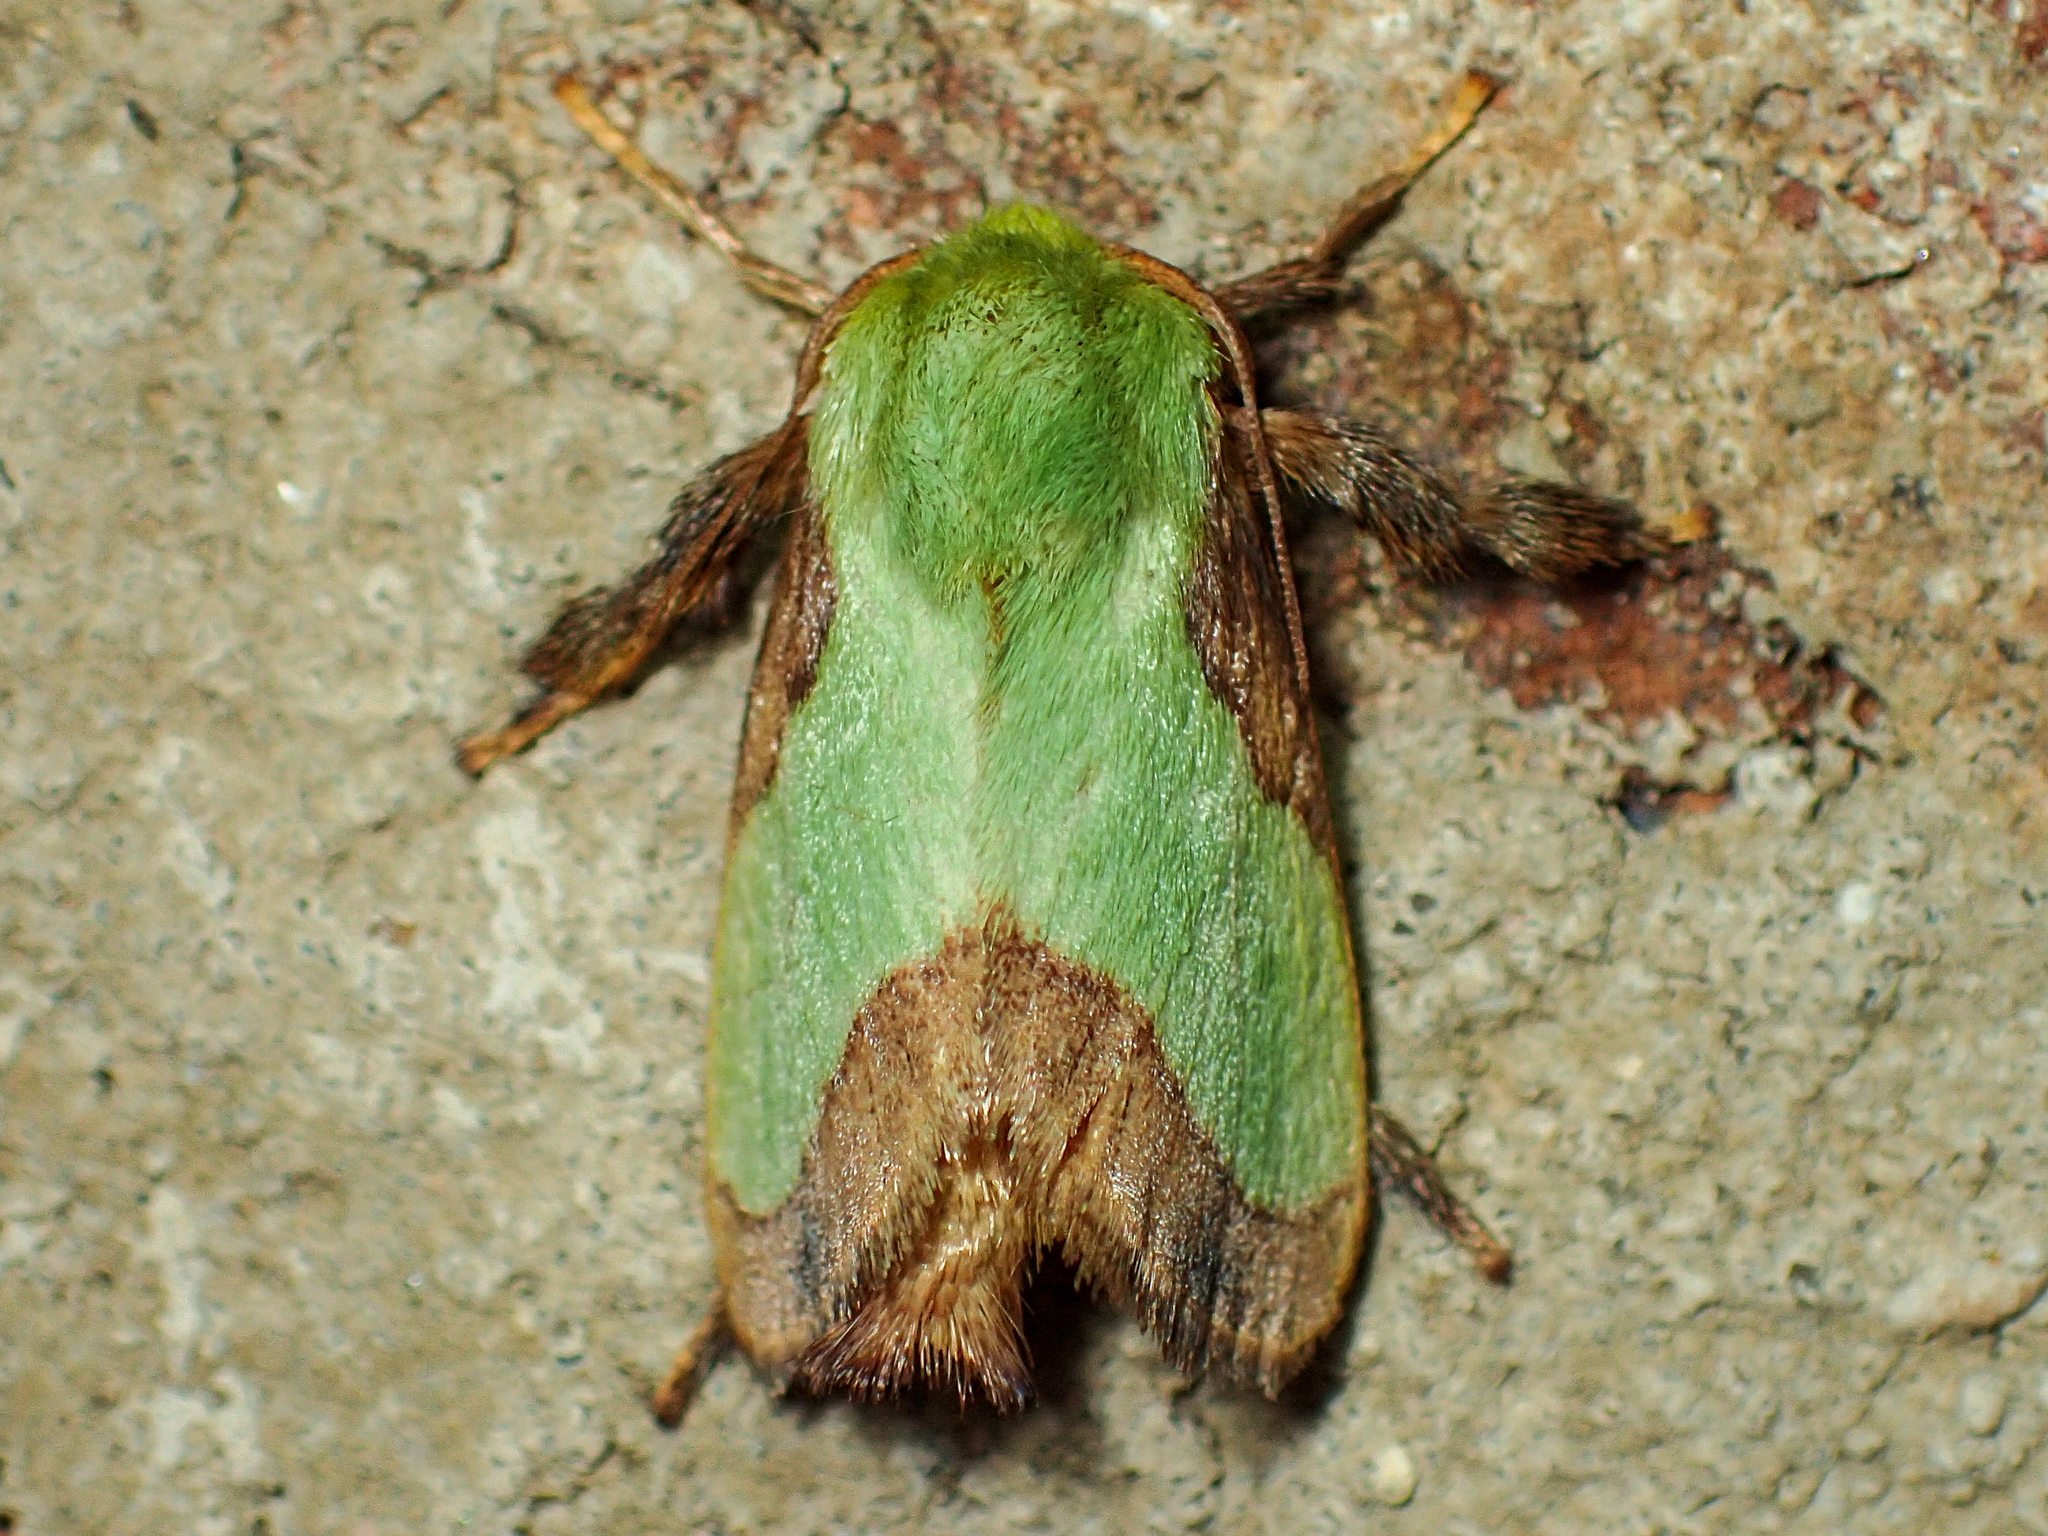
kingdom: Animalia
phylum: Arthropoda
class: Insecta
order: Lepidoptera
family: Limacodidae
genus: Parasa
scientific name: Parasa indetermina
